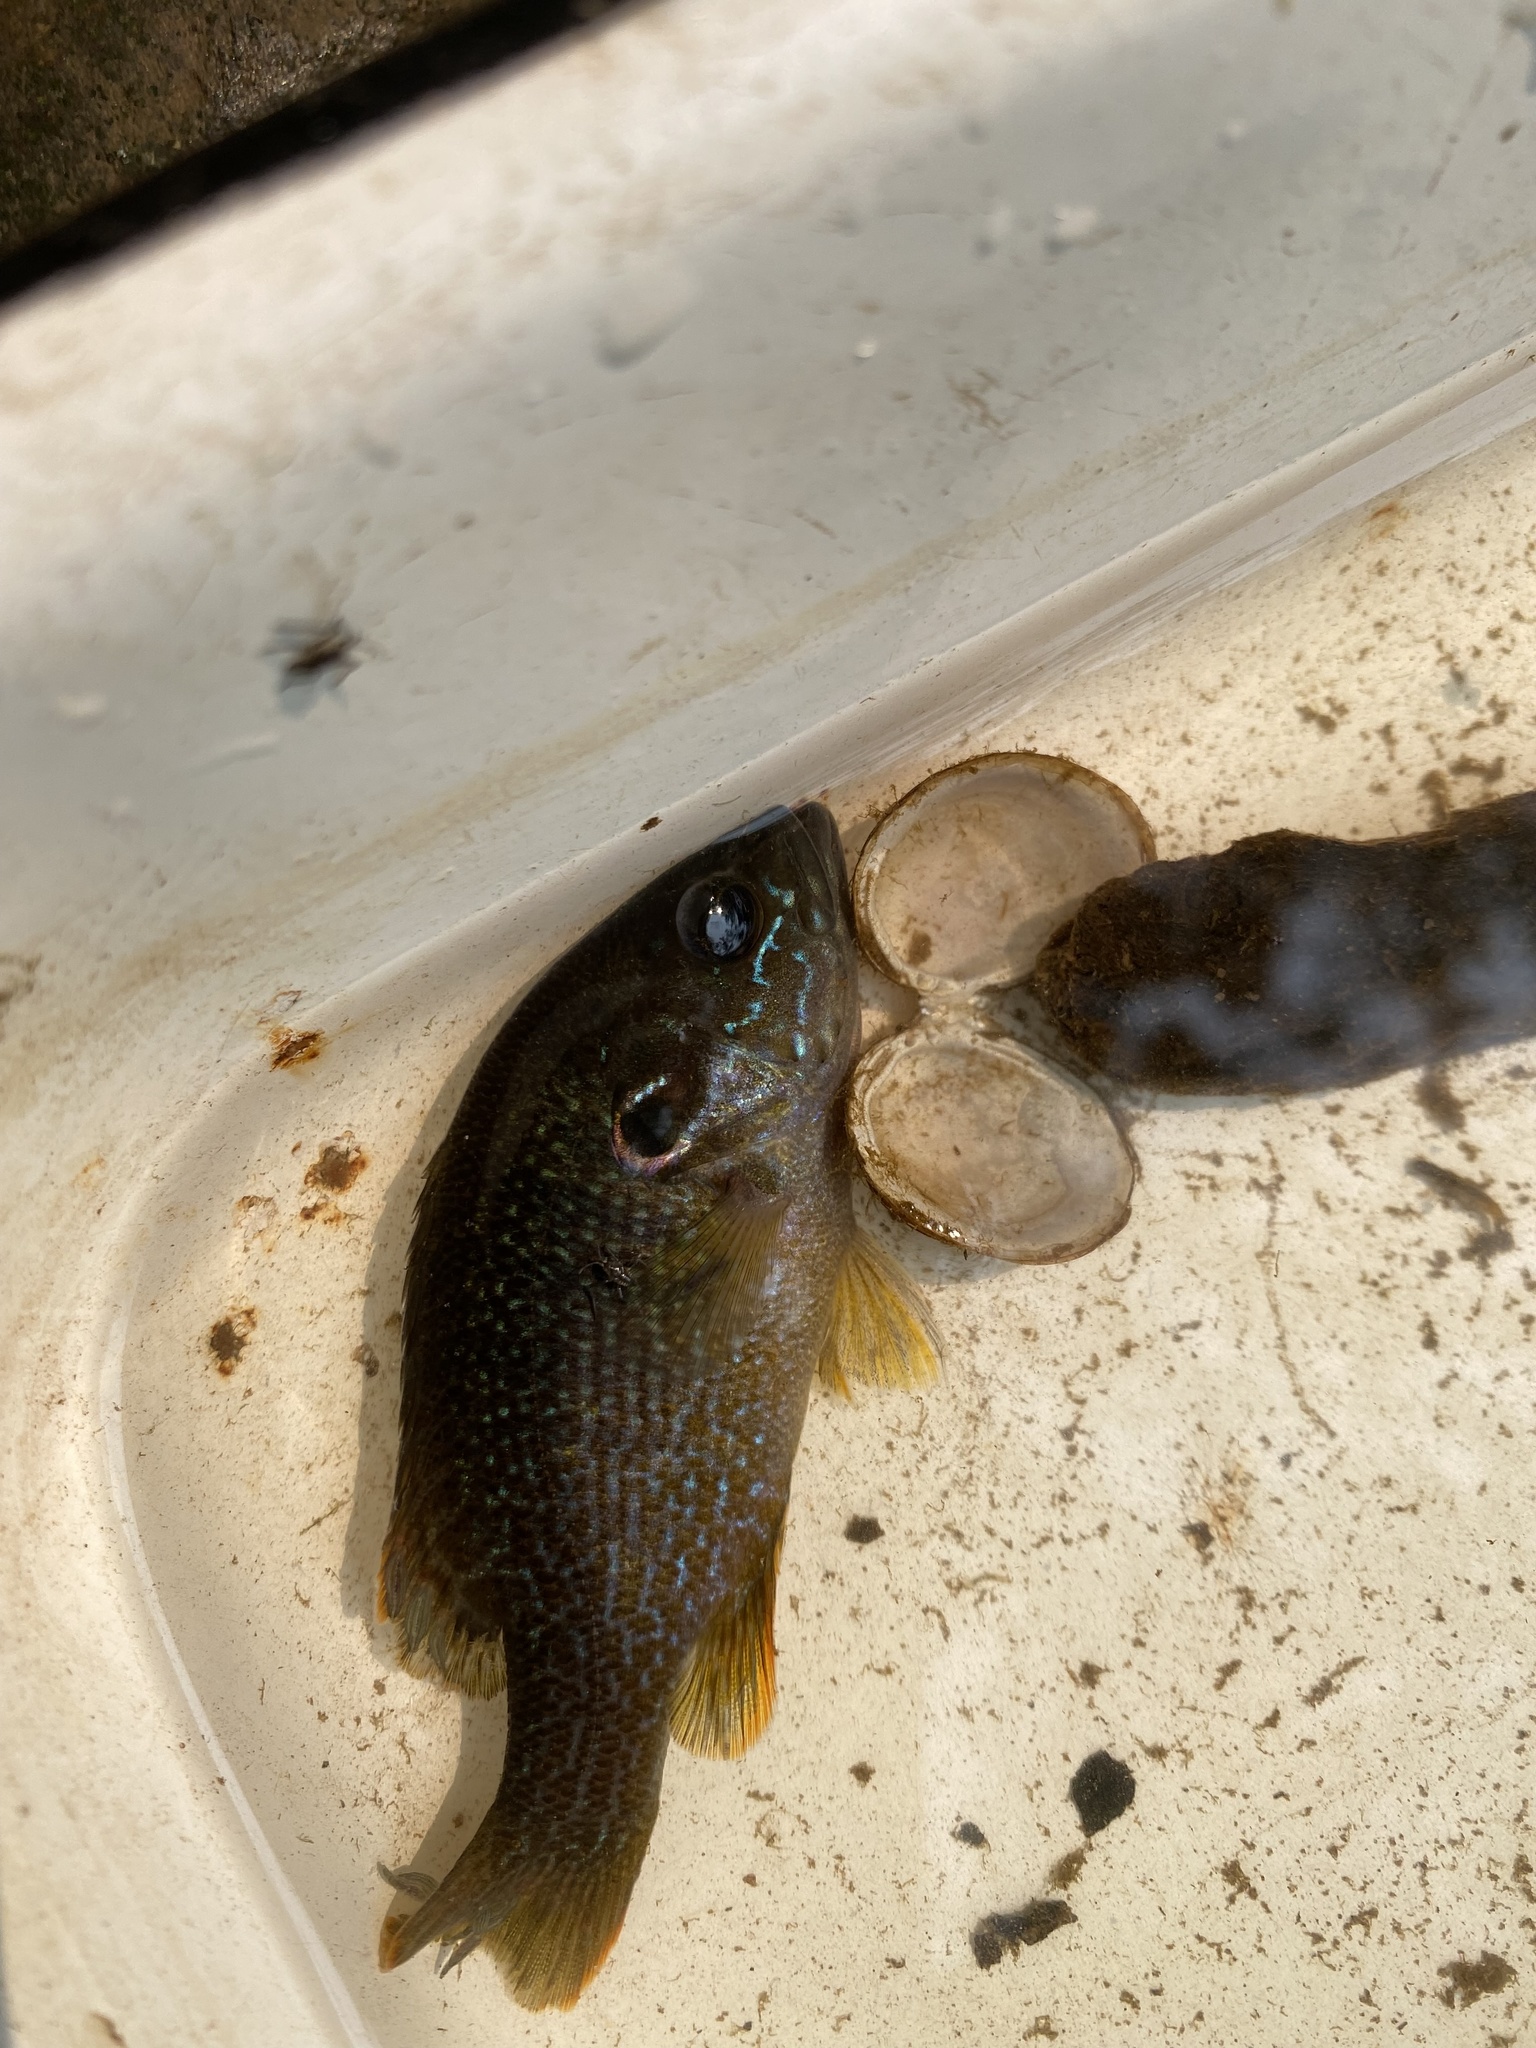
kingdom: Animalia
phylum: Chordata
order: Perciformes
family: Centrarchidae
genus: Lepomis
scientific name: Lepomis cyanellus
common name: Green sunfish
